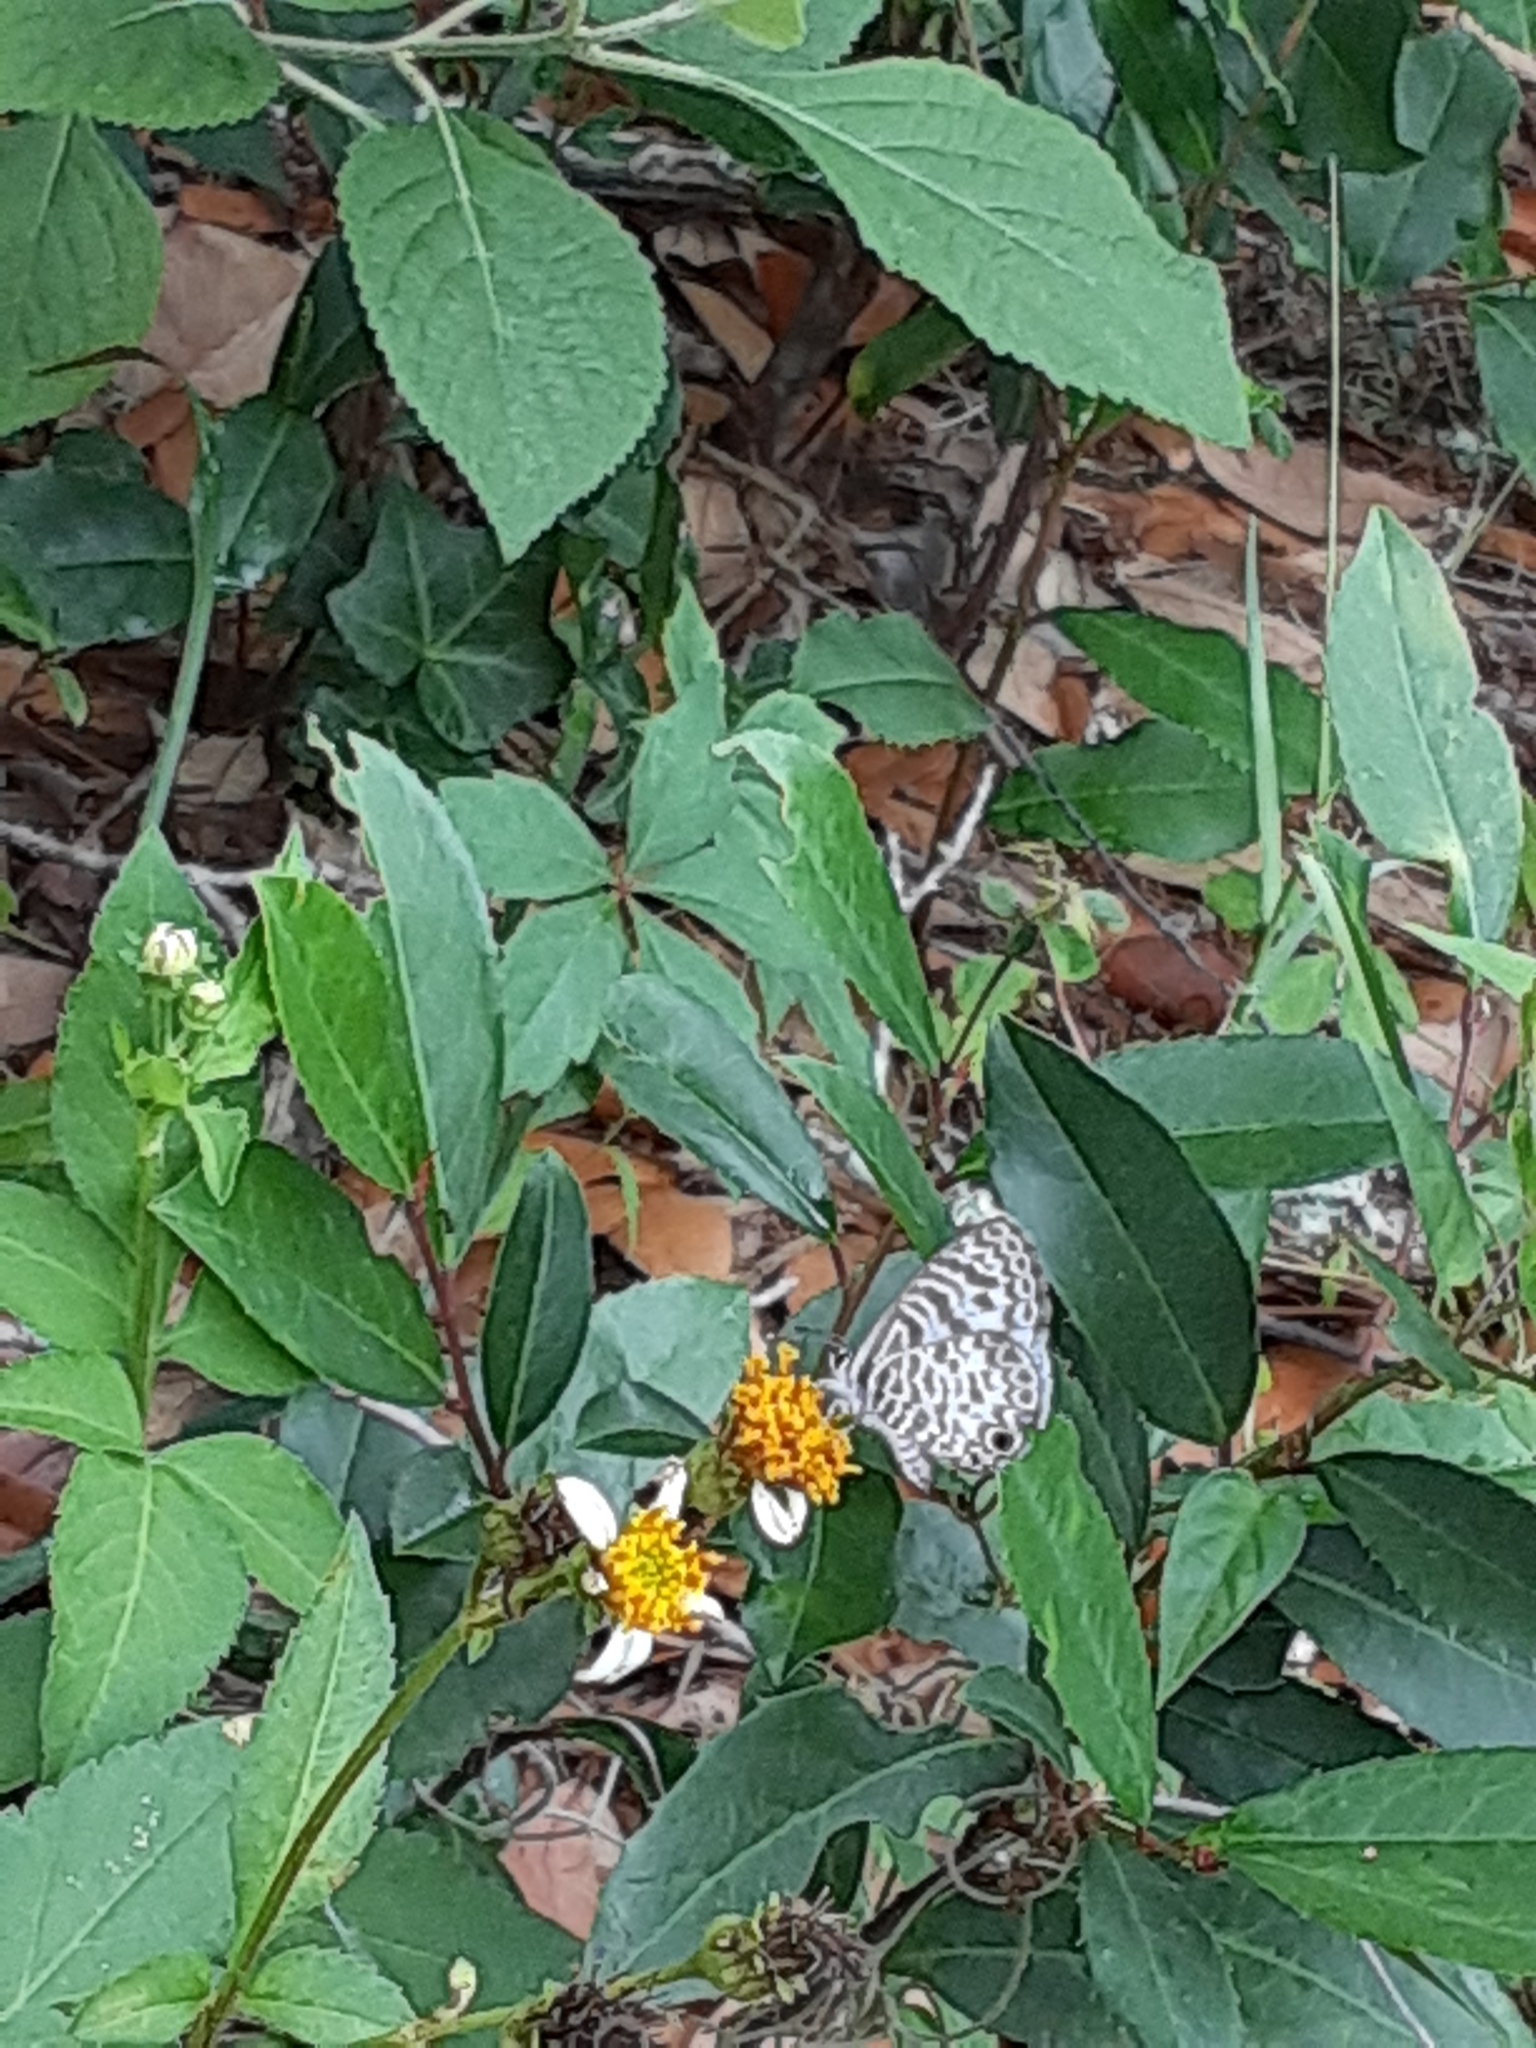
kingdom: Animalia
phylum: Arthropoda
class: Insecta
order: Lepidoptera
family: Lycaenidae
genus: Leptotes
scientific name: Leptotes cassius
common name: Cassius blue
